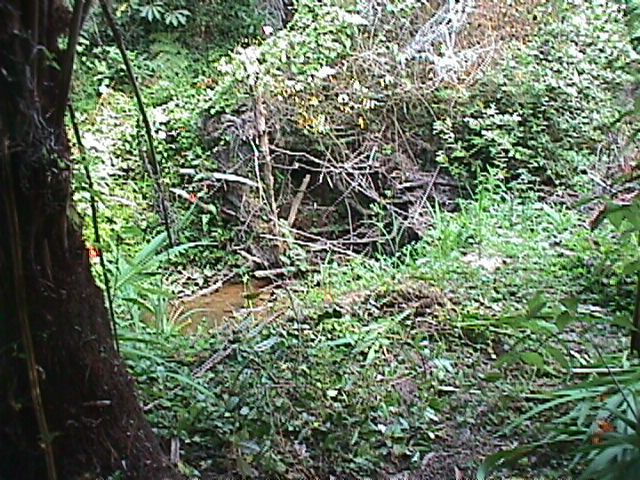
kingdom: Plantae
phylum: Tracheophyta
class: Magnoliopsida
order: Rosales
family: Elaeagnaceae
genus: Elaeagnus
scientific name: Elaeagnus reflexa
